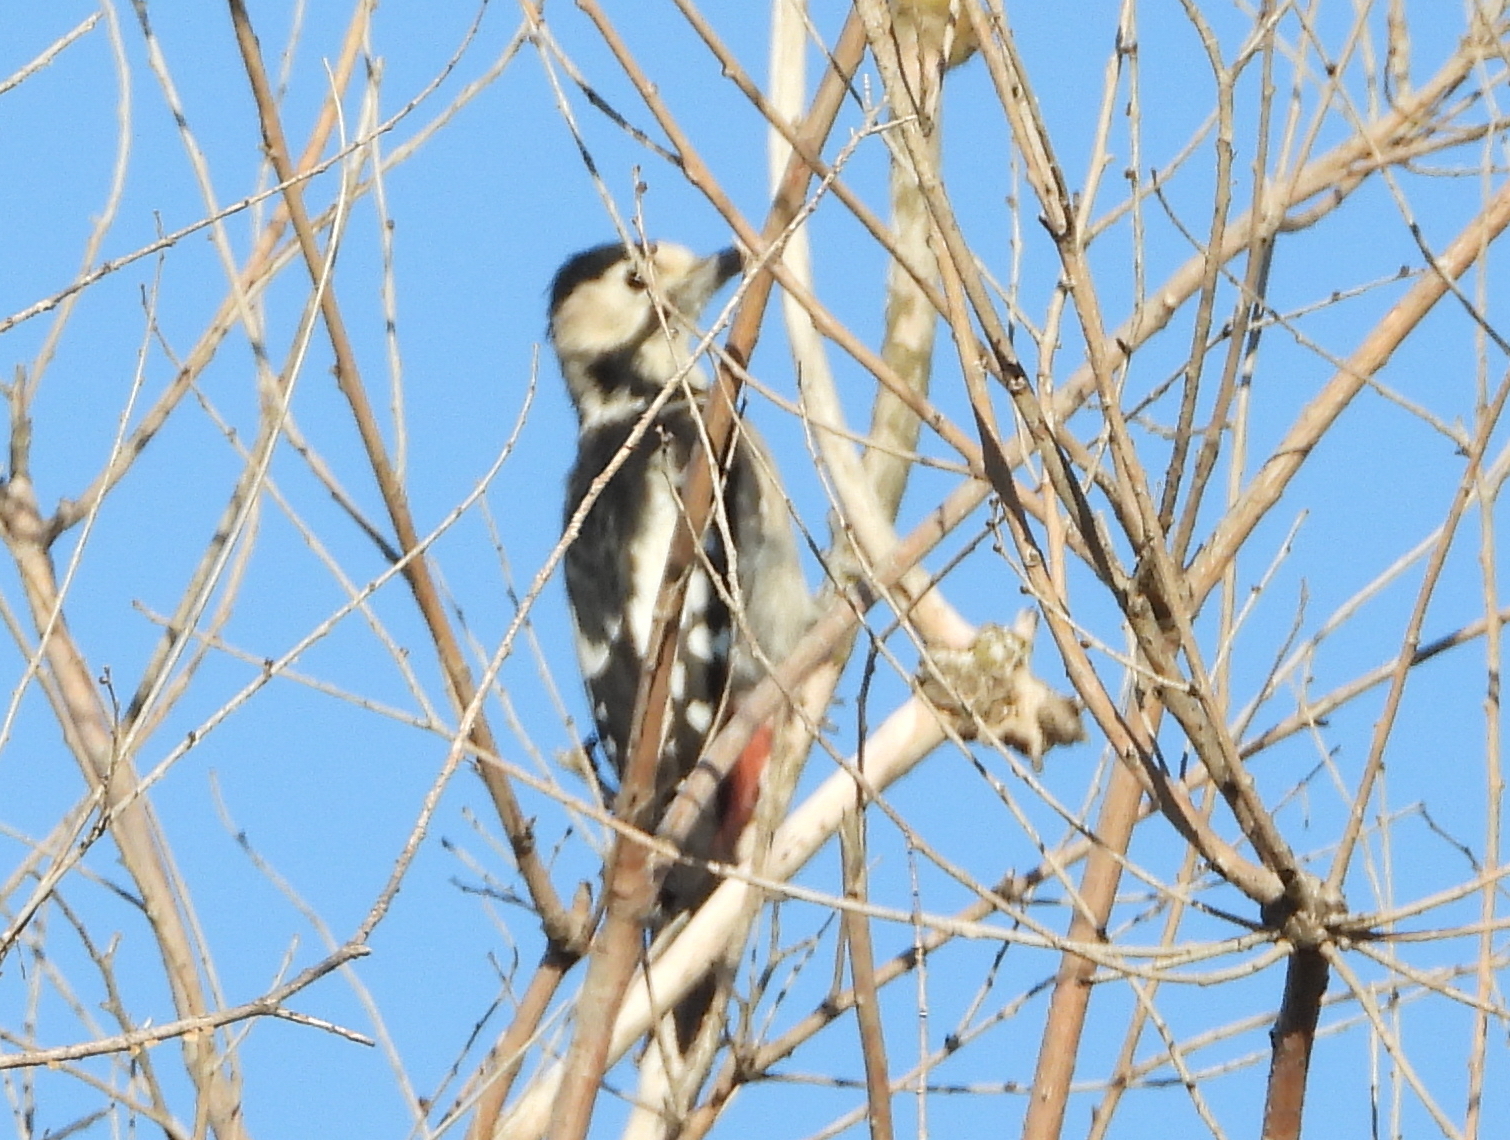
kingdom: Animalia
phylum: Chordata
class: Aves
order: Piciformes
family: Picidae
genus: Dendrocopos
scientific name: Dendrocopos syriacus
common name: Syrian woodpecker
